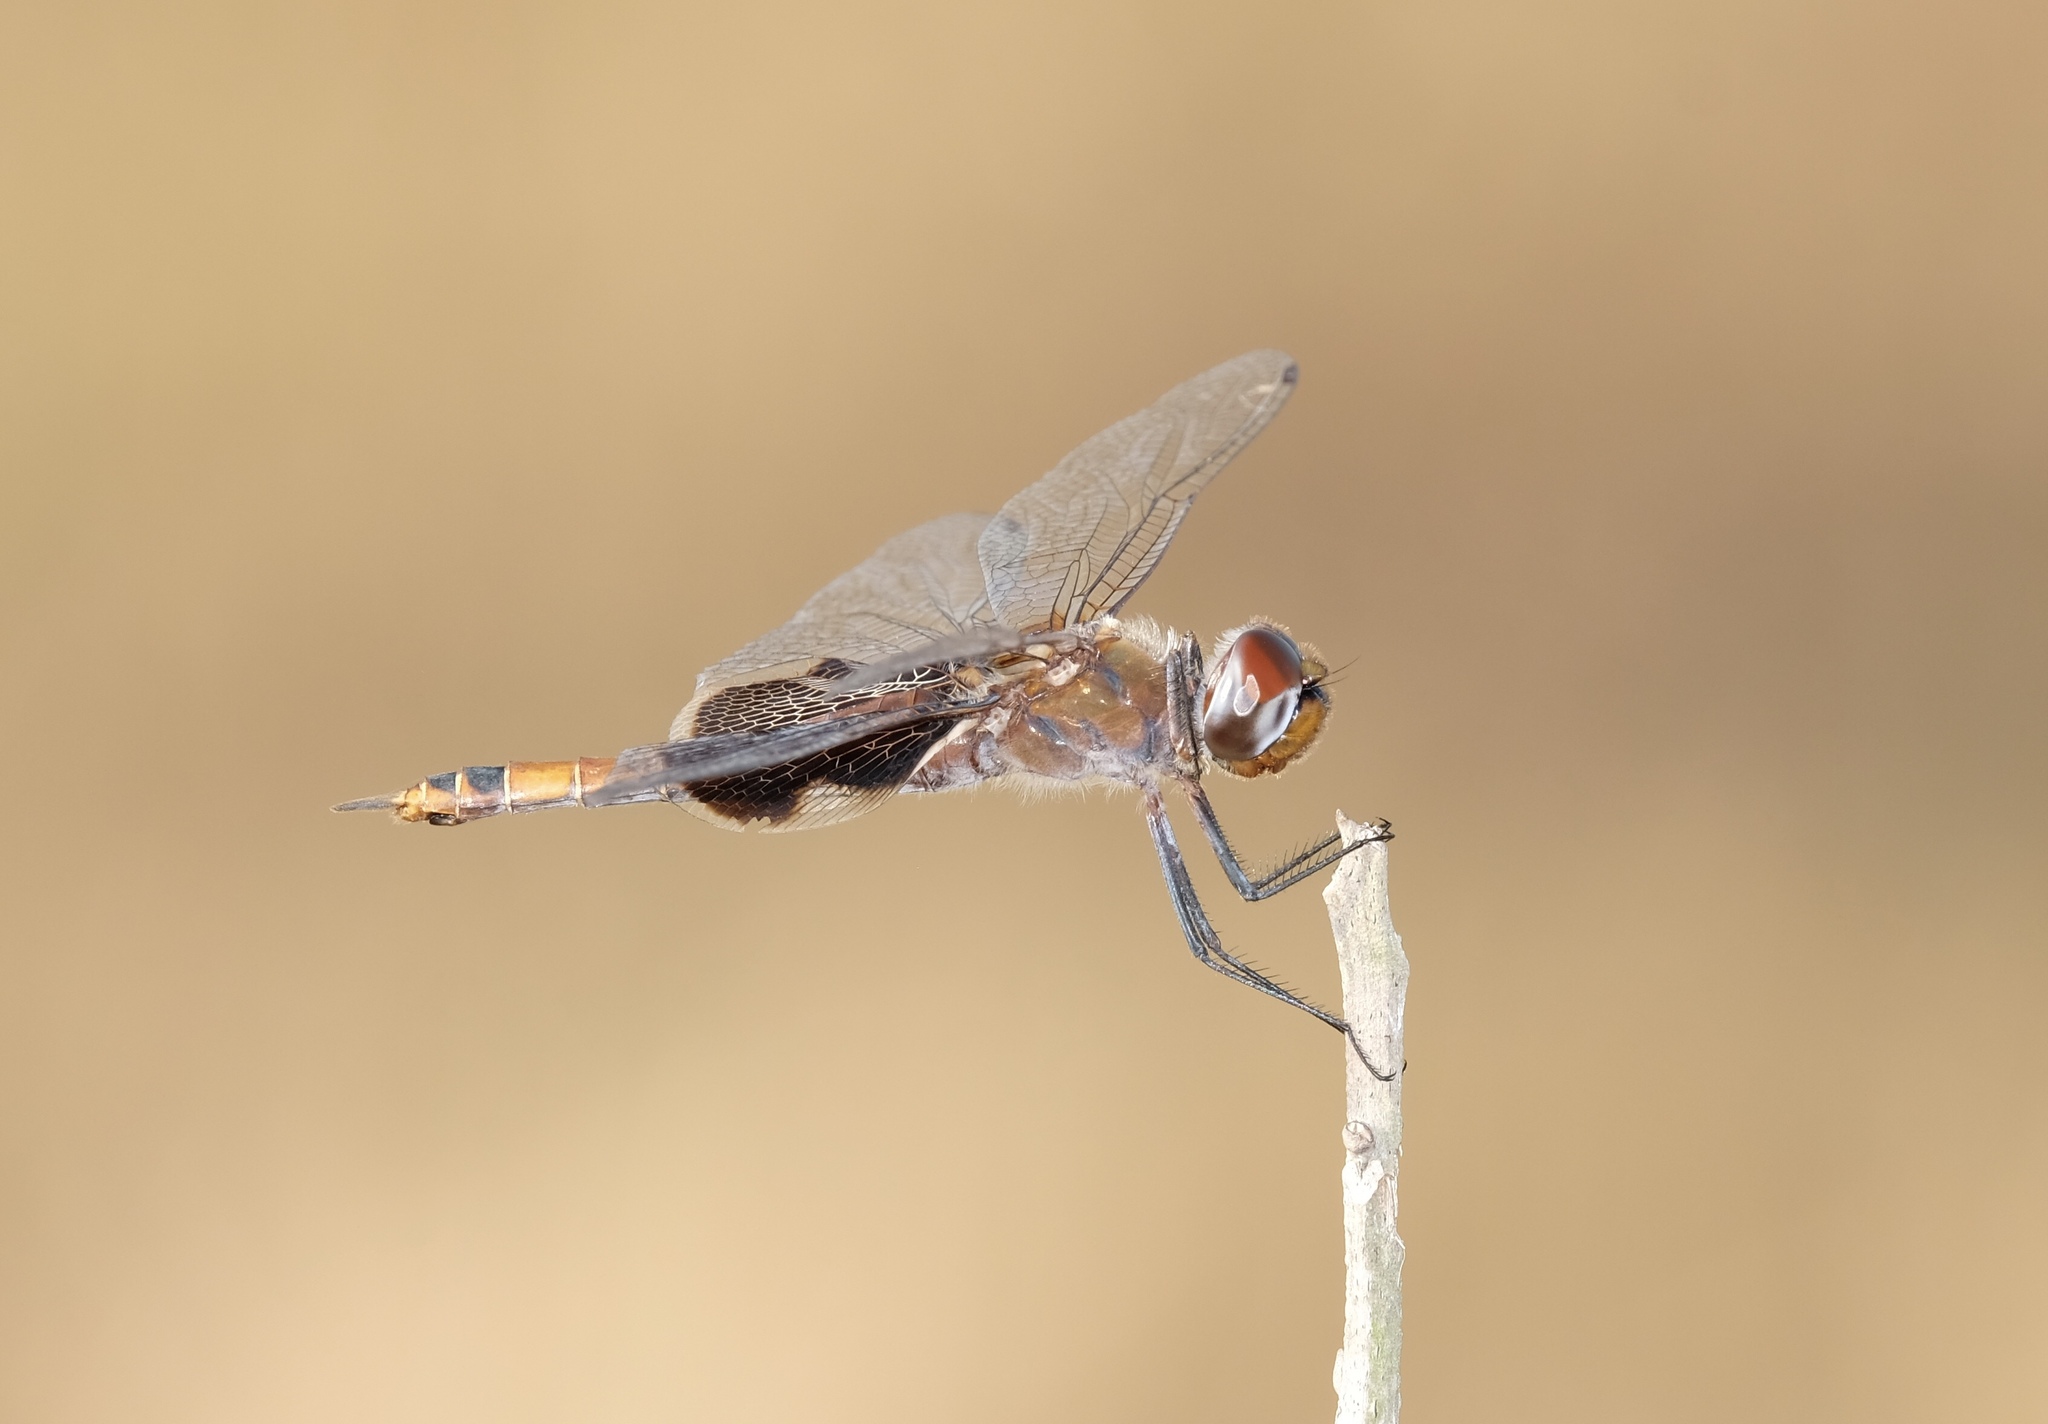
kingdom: Animalia
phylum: Arthropoda
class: Insecta
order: Odonata
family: Libellulidae
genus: Tramea
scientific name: Tramea carolina
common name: Carolina saddlebags
